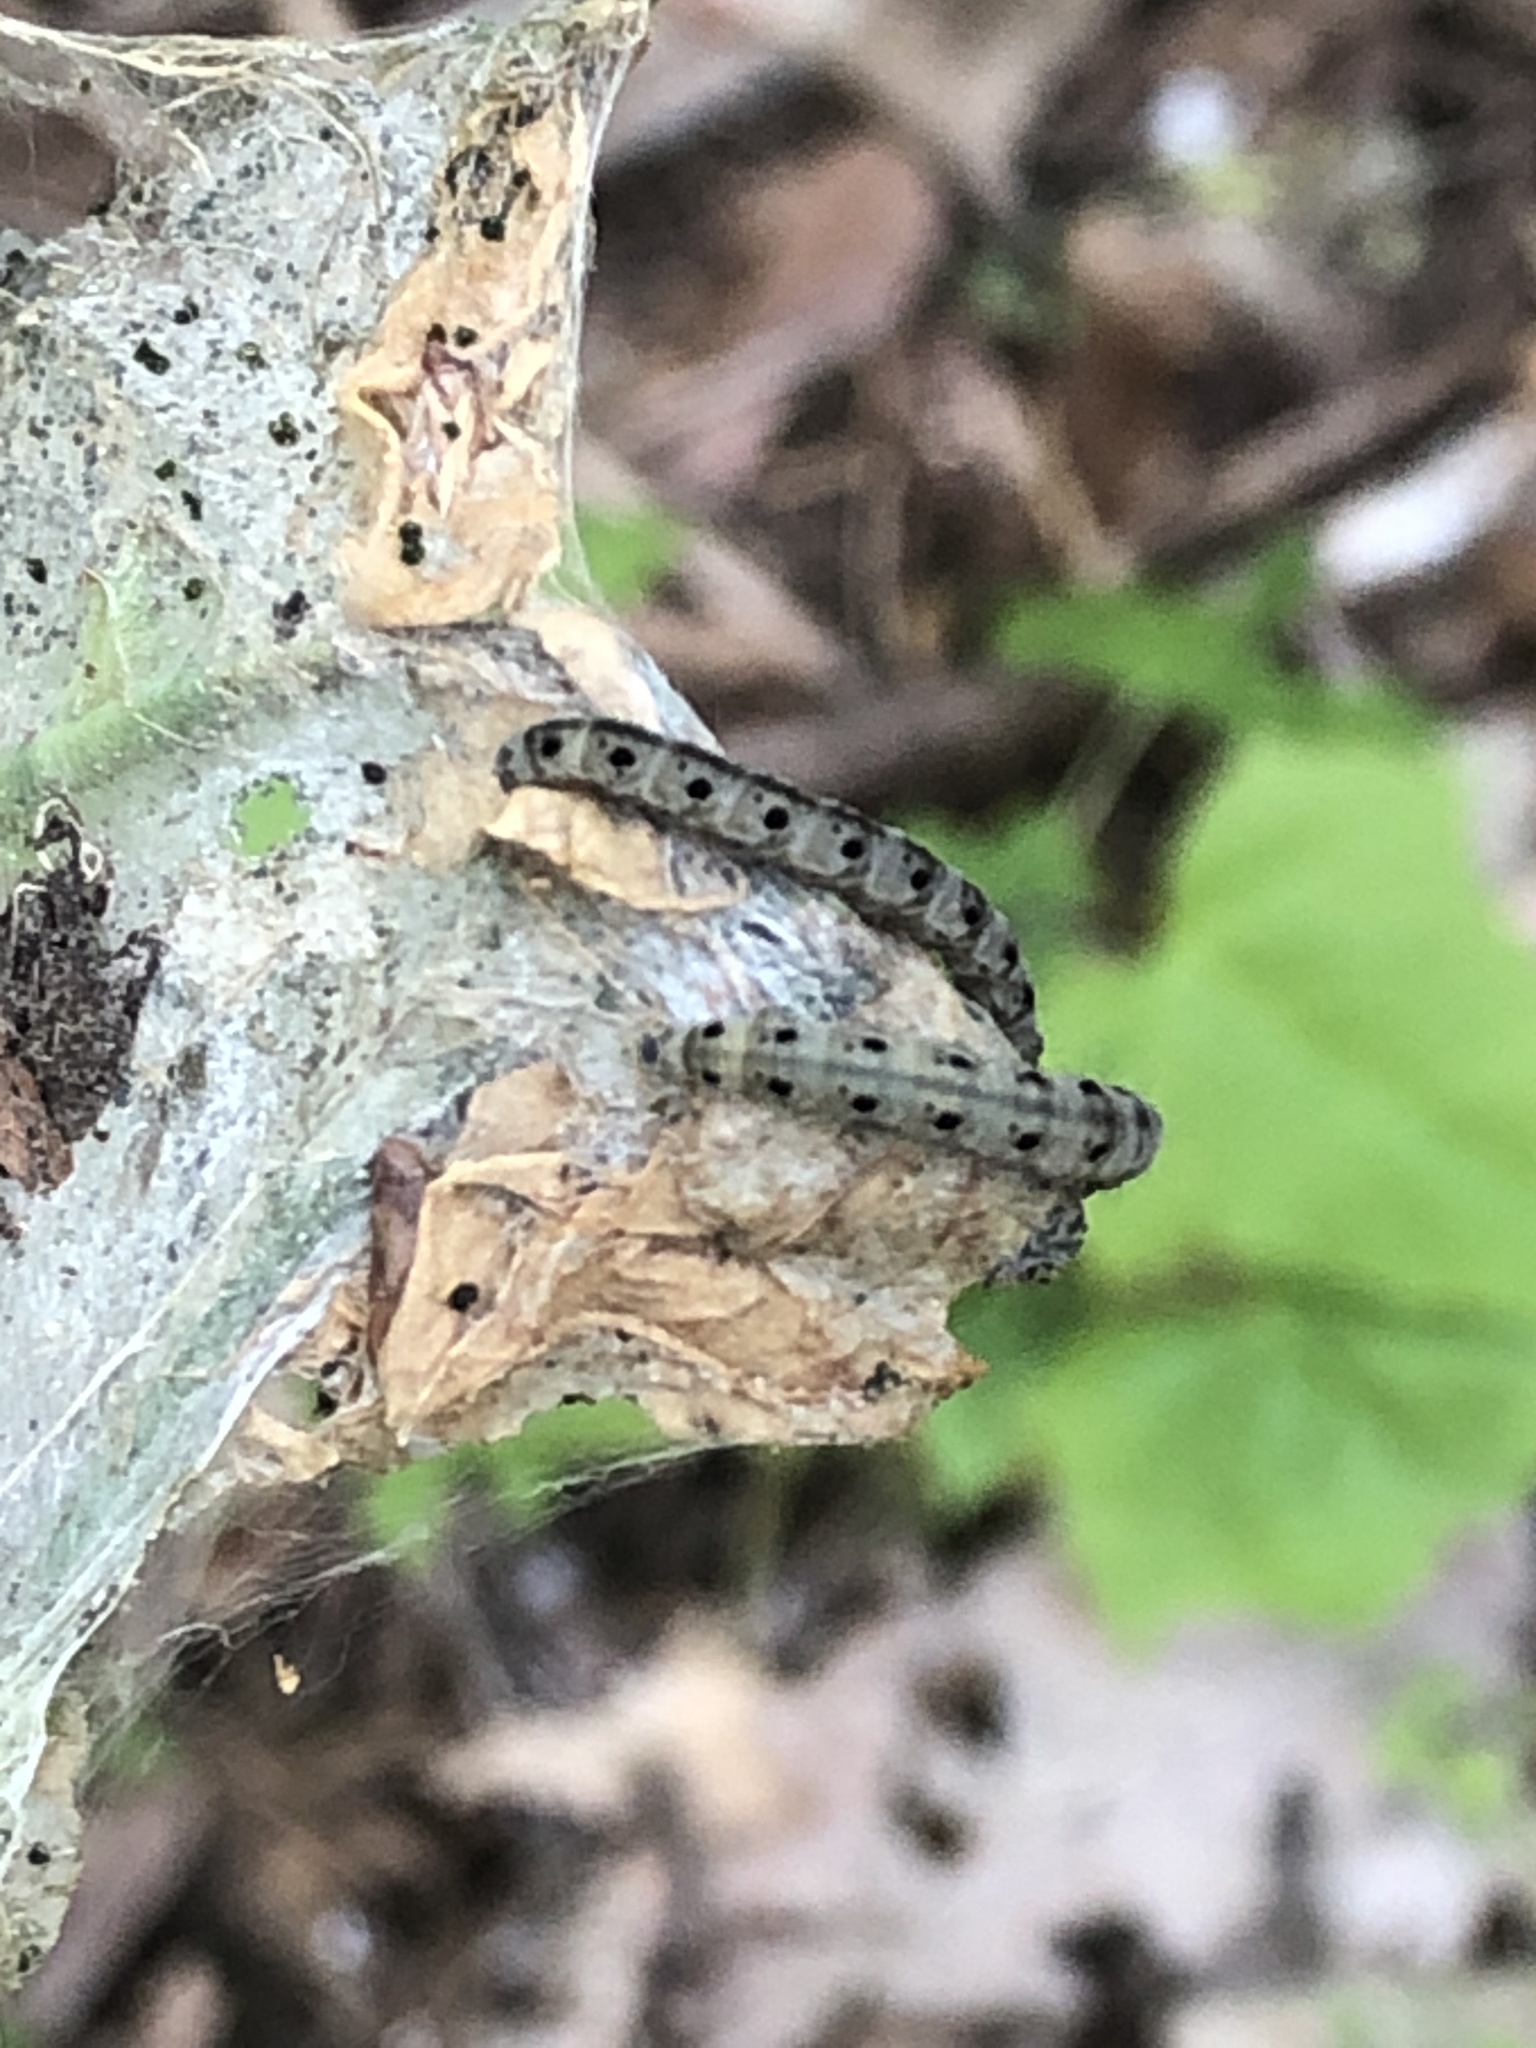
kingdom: Animalia
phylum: Arthropoda
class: Insecta
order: Lepidoptera
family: Yponomeutidae
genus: Yponomeuta
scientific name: Yponomeuta cagnagellus
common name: Spindle ermine
